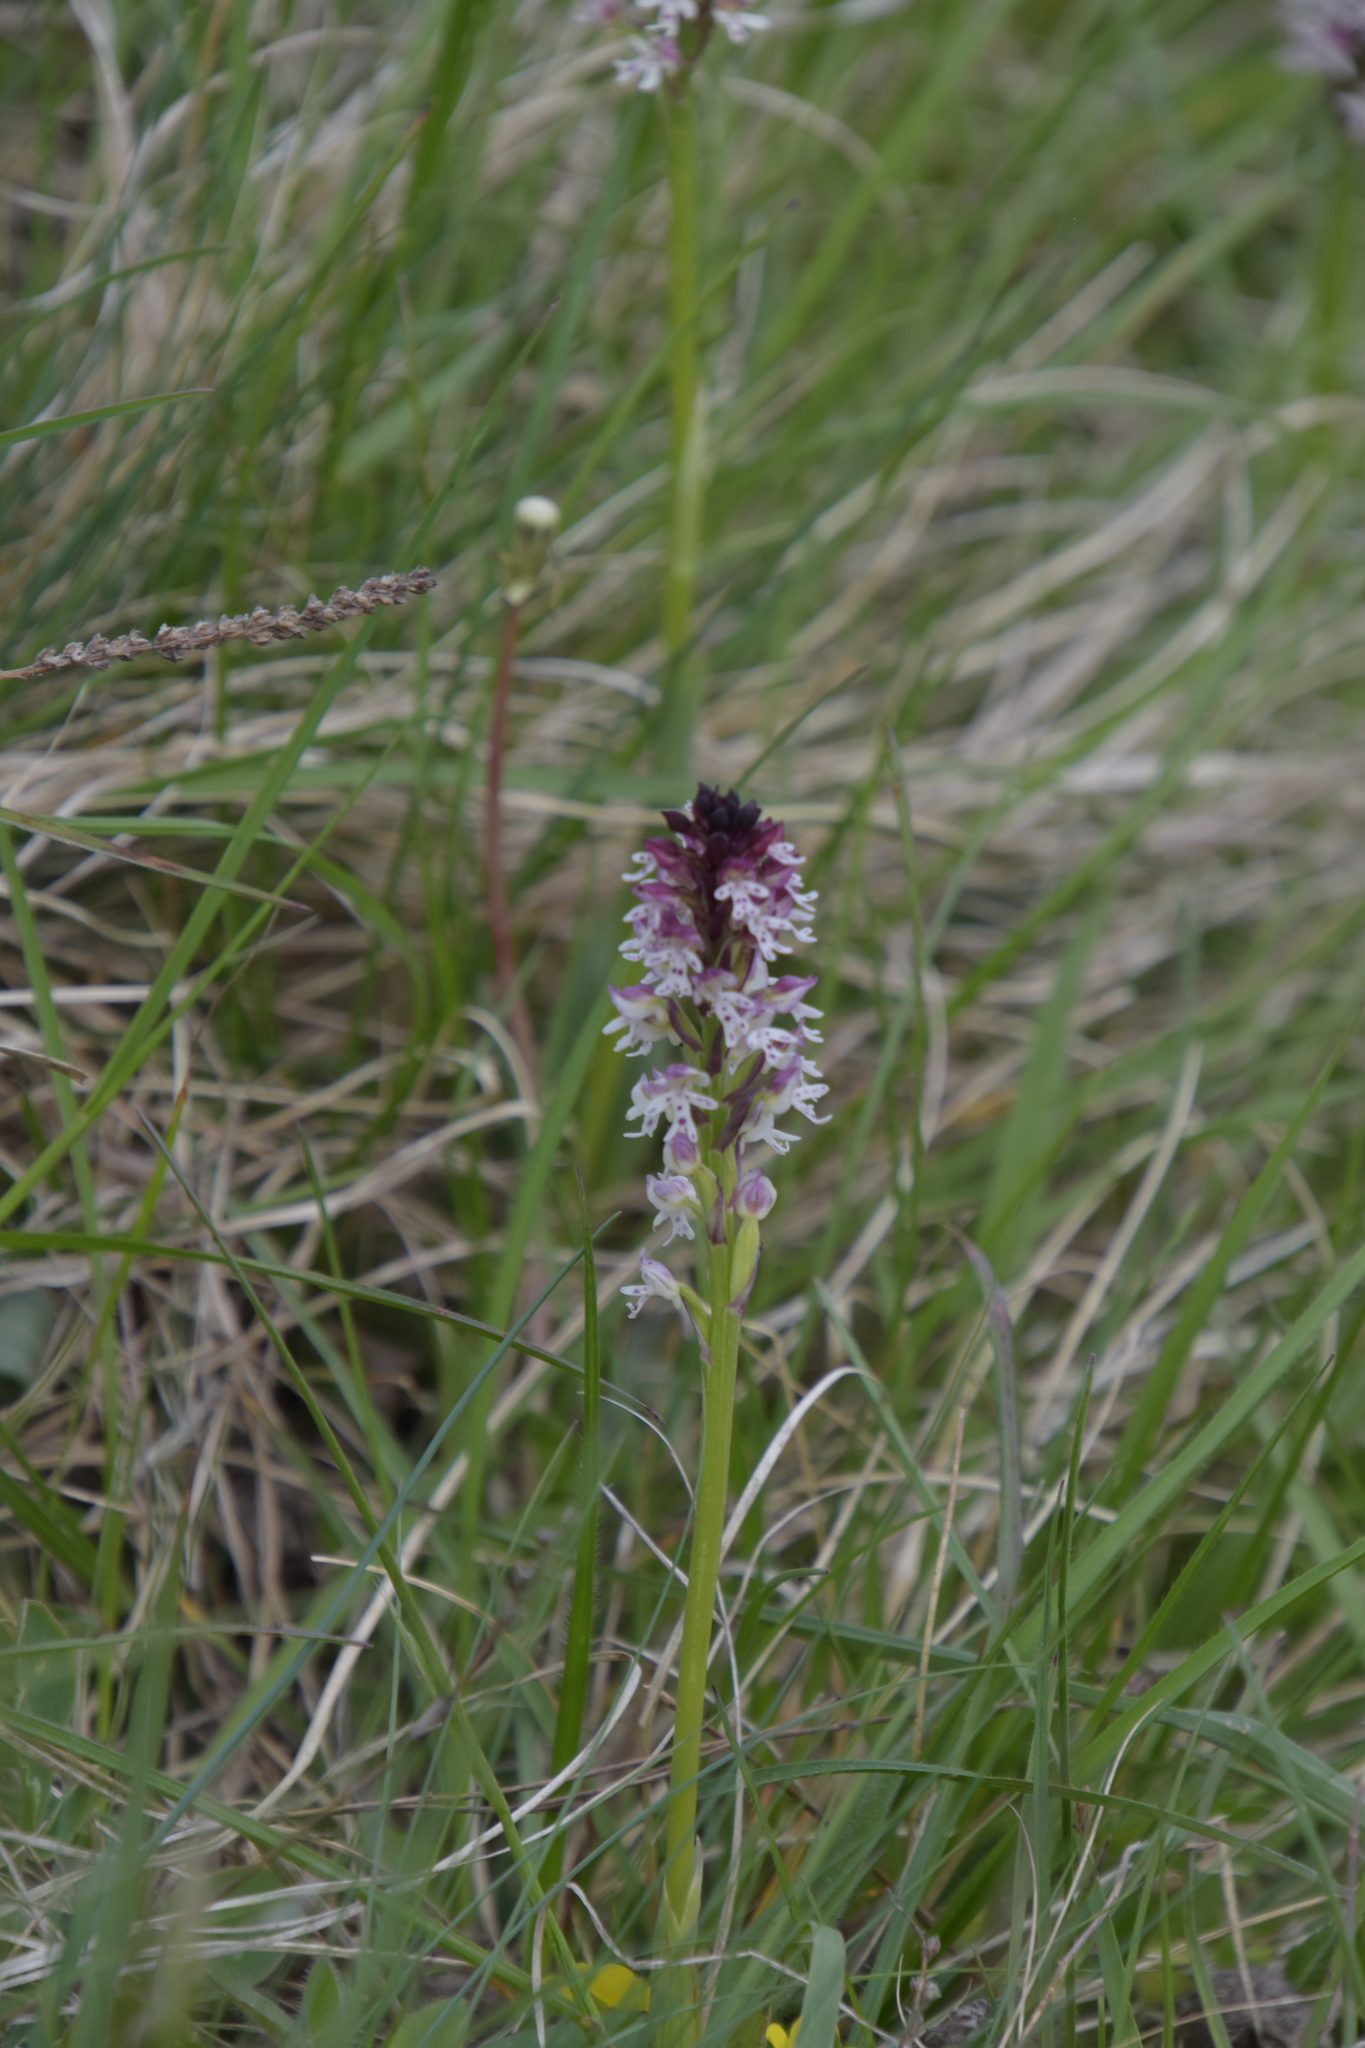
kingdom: Plantae
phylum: Tracheophyta
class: Liliopsida
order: Asparagales
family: Orchidaceae
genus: Neotinea
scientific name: Neotinea ustulata
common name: Burnt orchid
